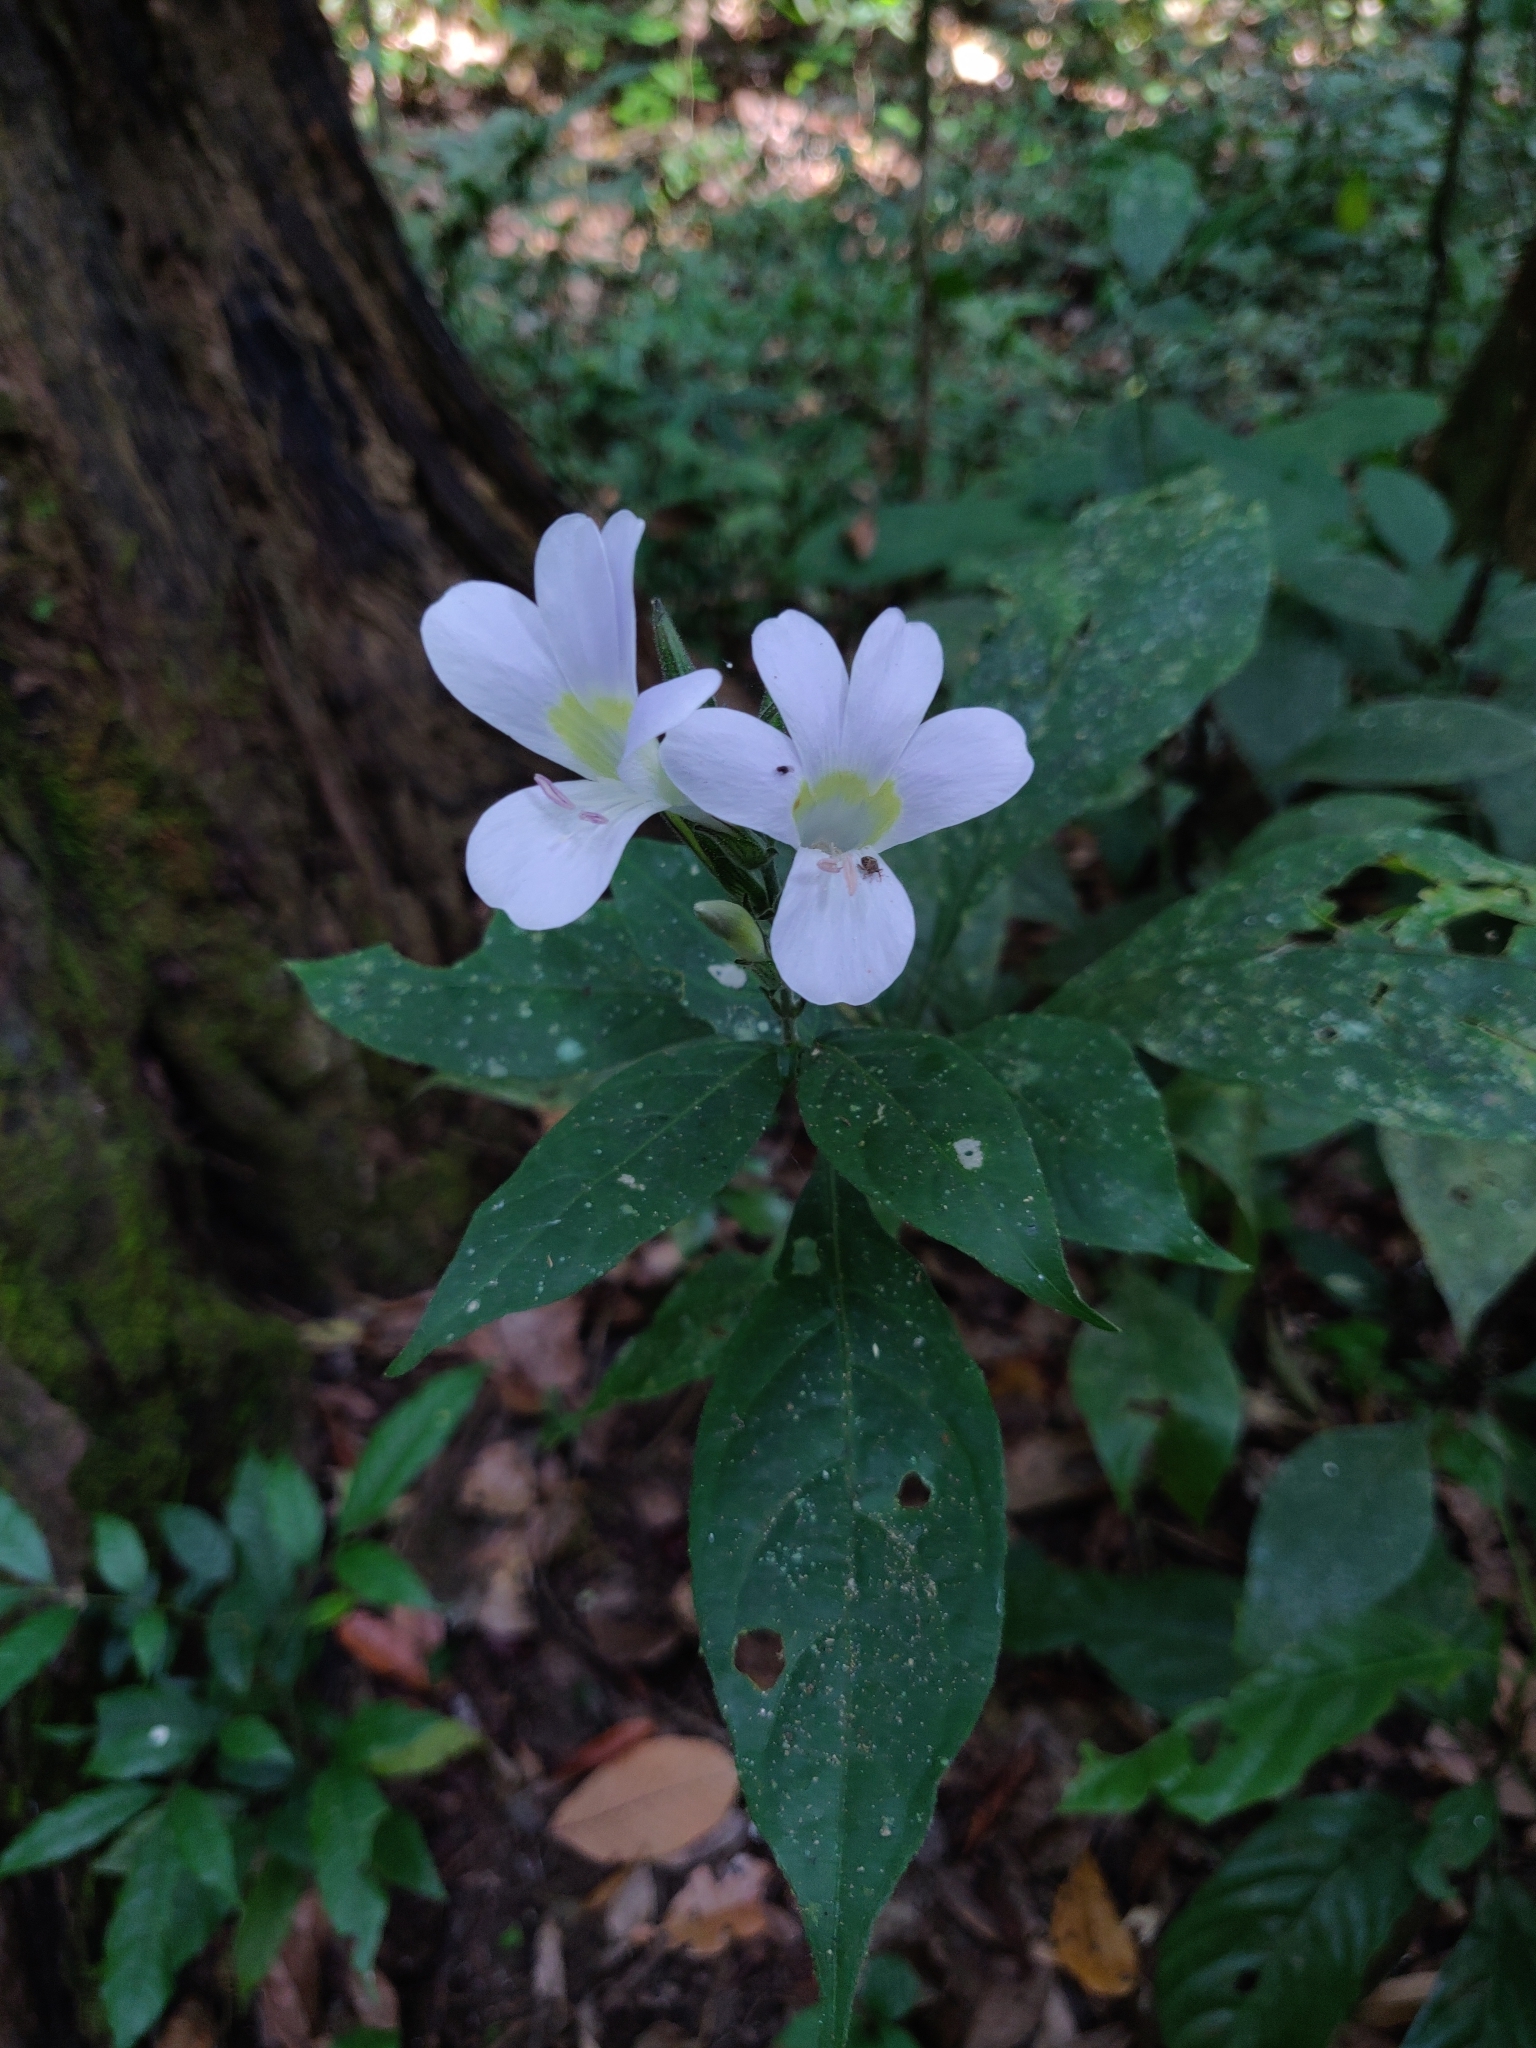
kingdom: Plantae
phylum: Tracheophyta
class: Magnoliopsida
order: Lamiales
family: Acanthaceae
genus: Barleria
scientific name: Barleria courtallica
